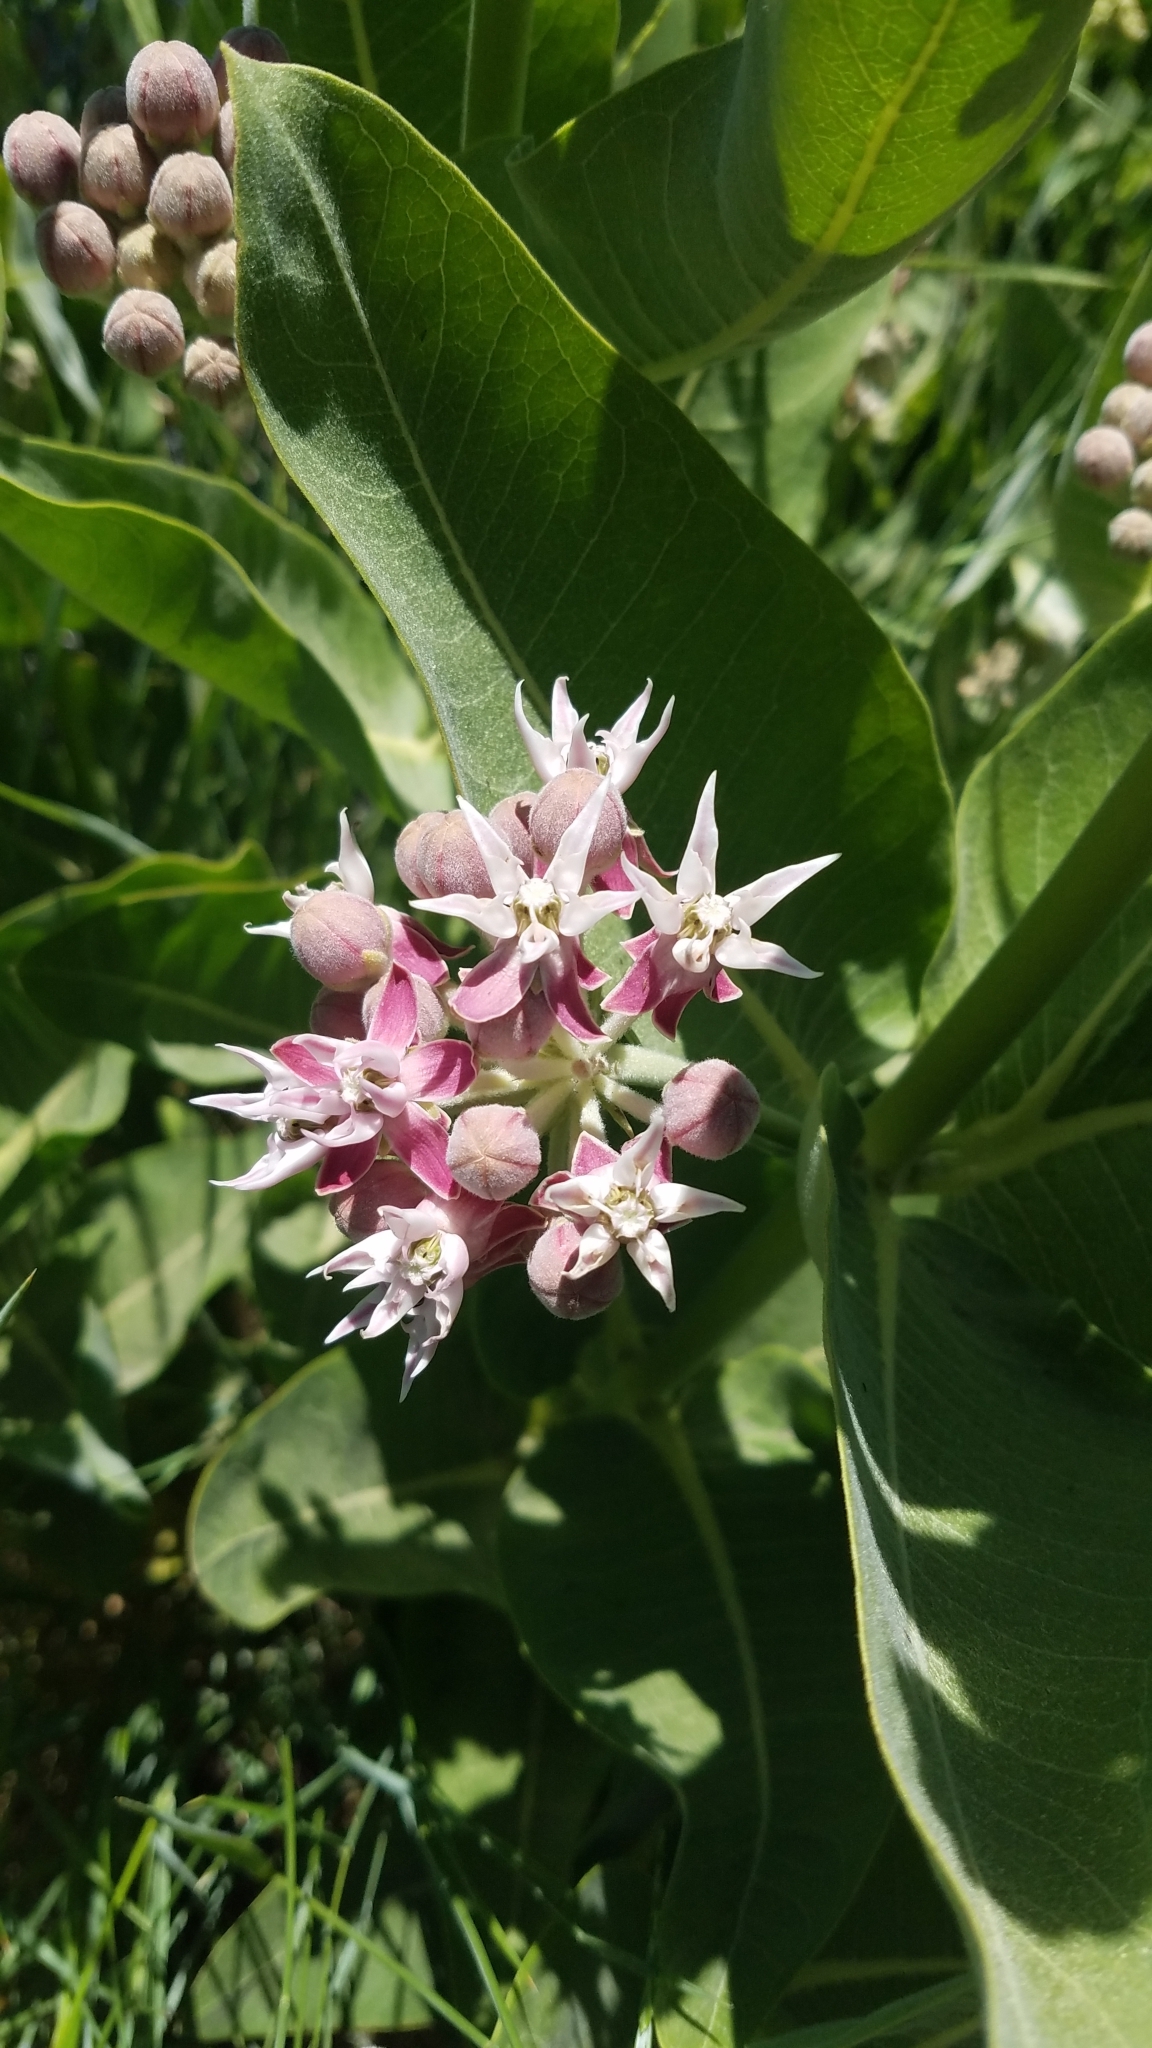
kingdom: Plantae
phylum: Tracheophyta
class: Magnoliopsida
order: Gentianales
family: Apocynaceae
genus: Asclepias
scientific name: Asclepias speciosa
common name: Showy milkweed
